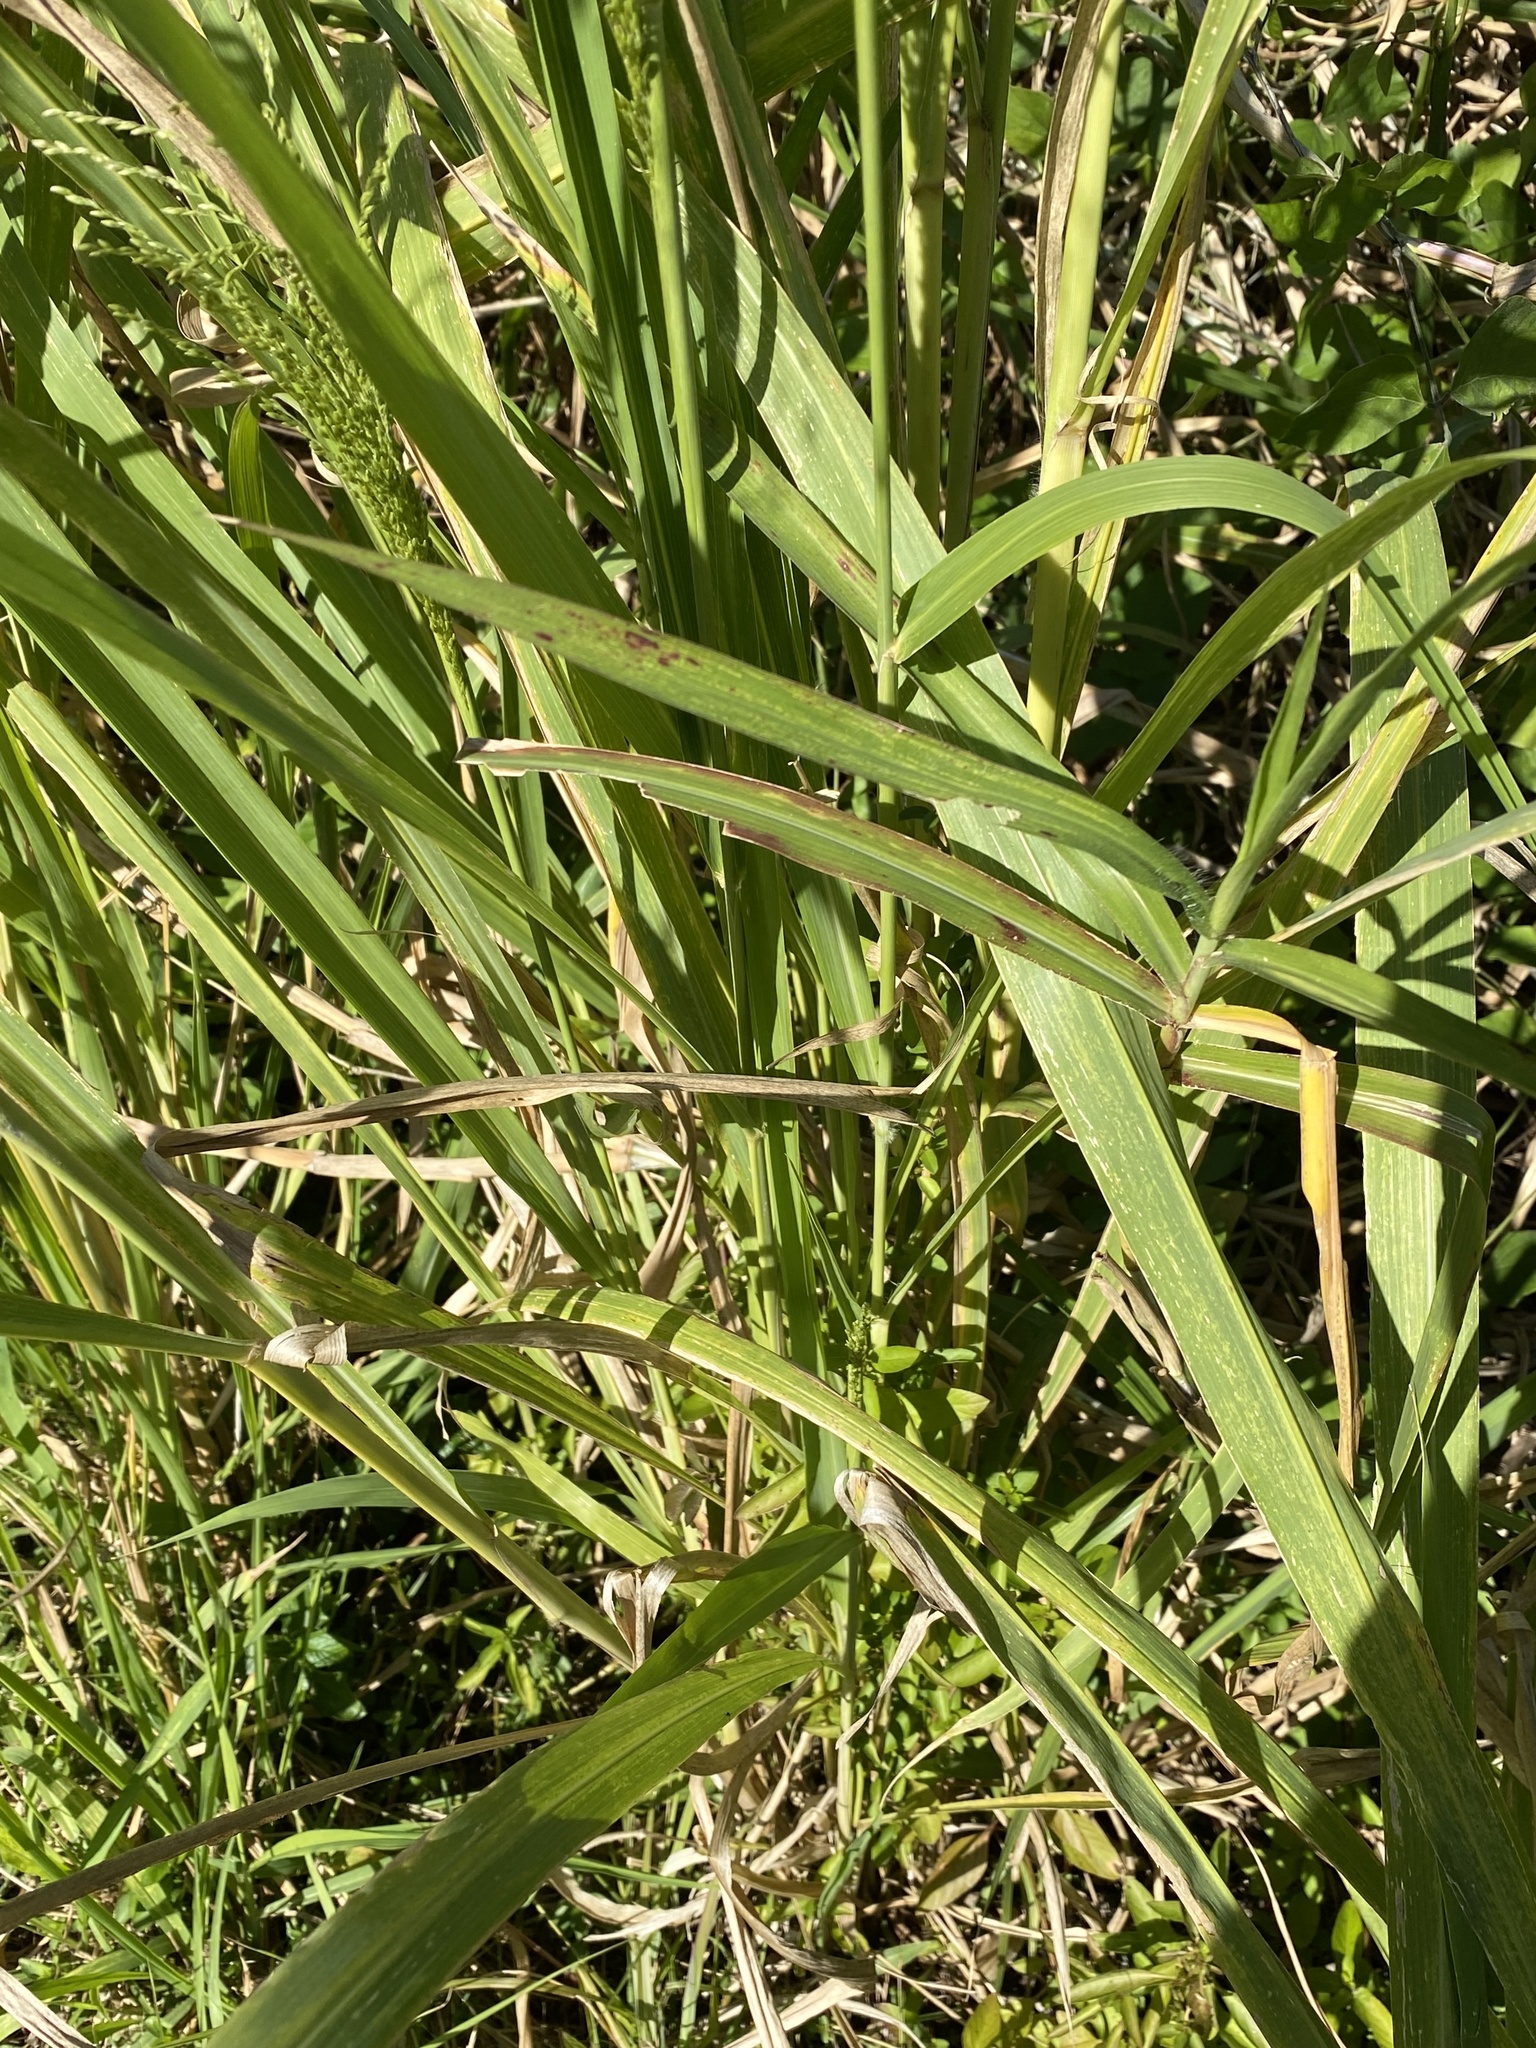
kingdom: Plantae
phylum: Tracheophyta
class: Liliopsida
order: Poales
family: Poaceae
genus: Megathyrsus
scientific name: Megathyrsus maximus
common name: Guineagrass
